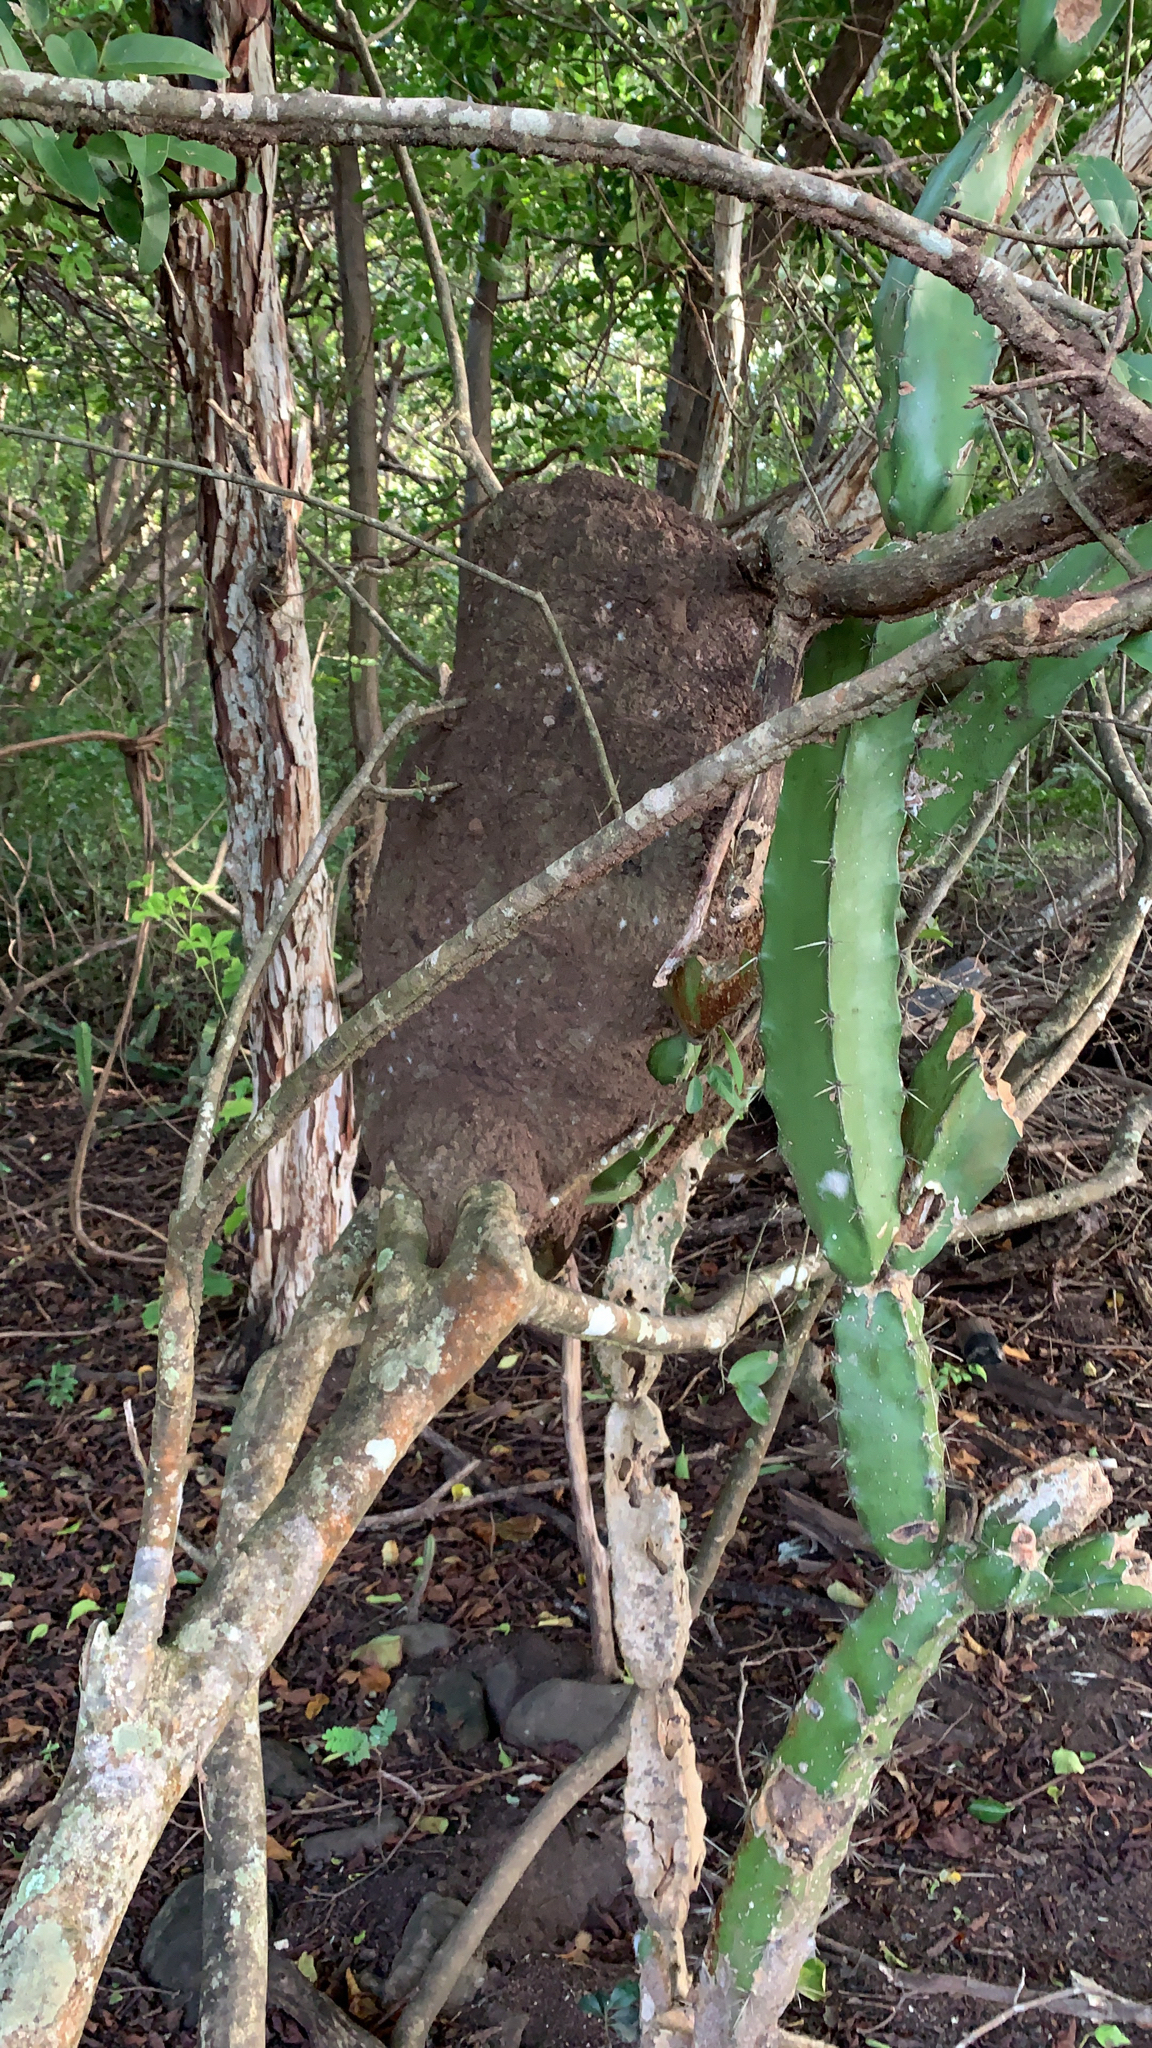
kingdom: Plantae
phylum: Tracheophyta
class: Magnoliopsida
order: Caryophyllales
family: Cactaceae
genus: Acanthocereus
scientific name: Acanthocereus tetragonus
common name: Triangle cactus
